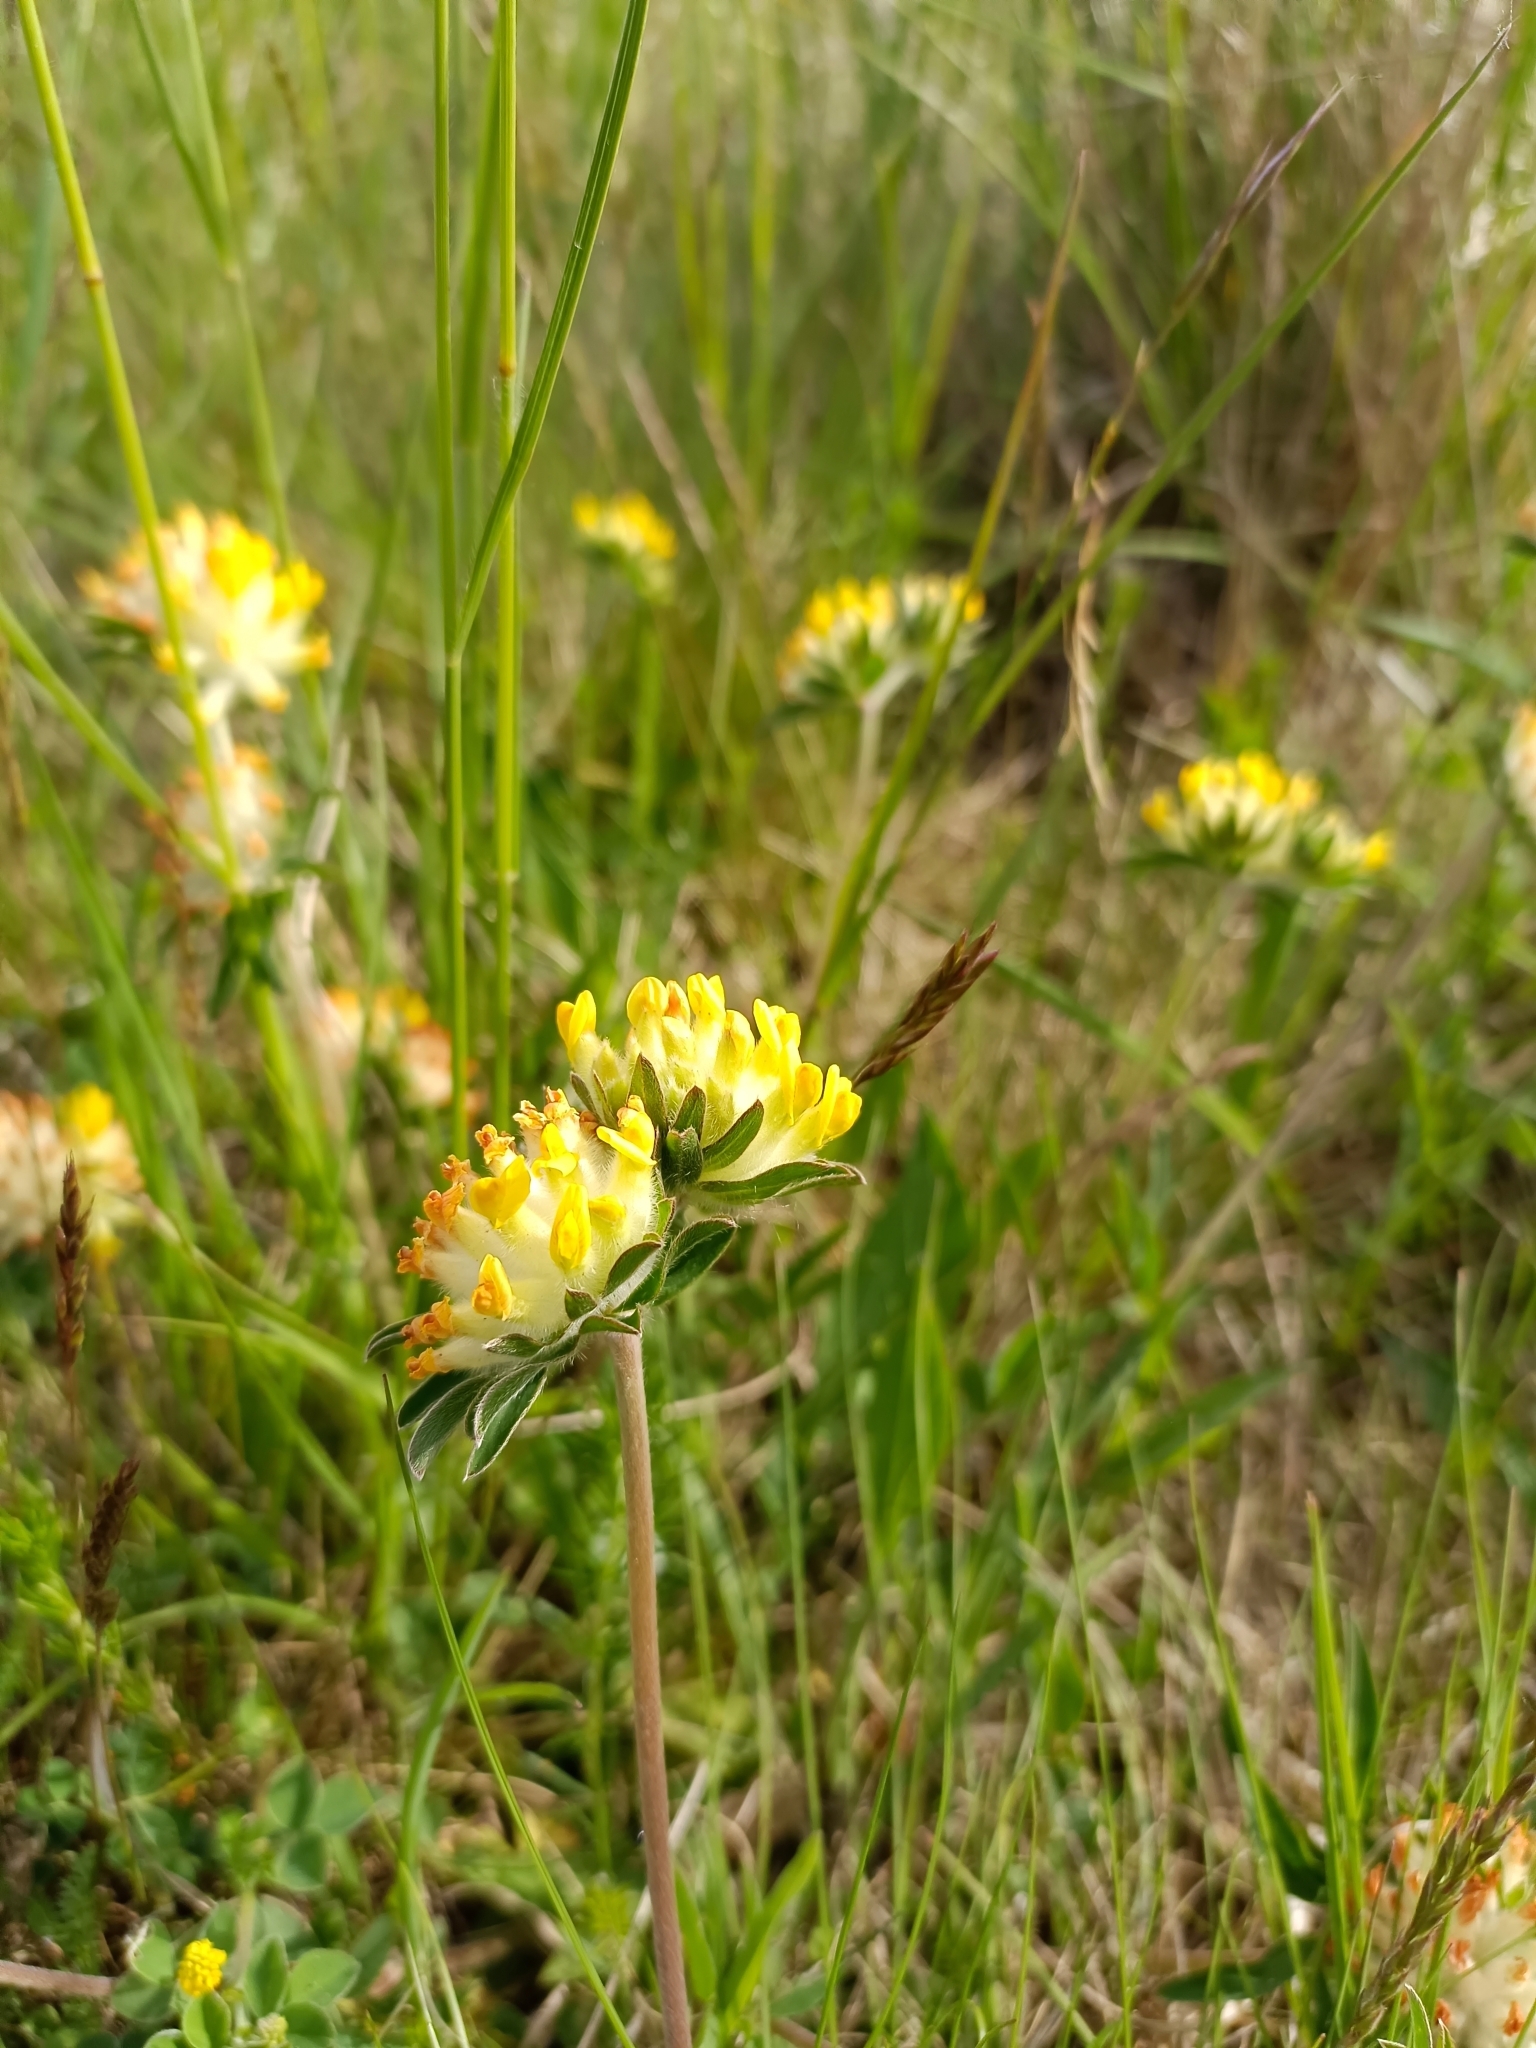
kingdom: Plantae
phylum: Tracheophyta
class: Magnoliopsida
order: Fabales
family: Fabaceae
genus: Anthyllis
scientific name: Anthyllis vulneraria
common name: Kidney vetch
